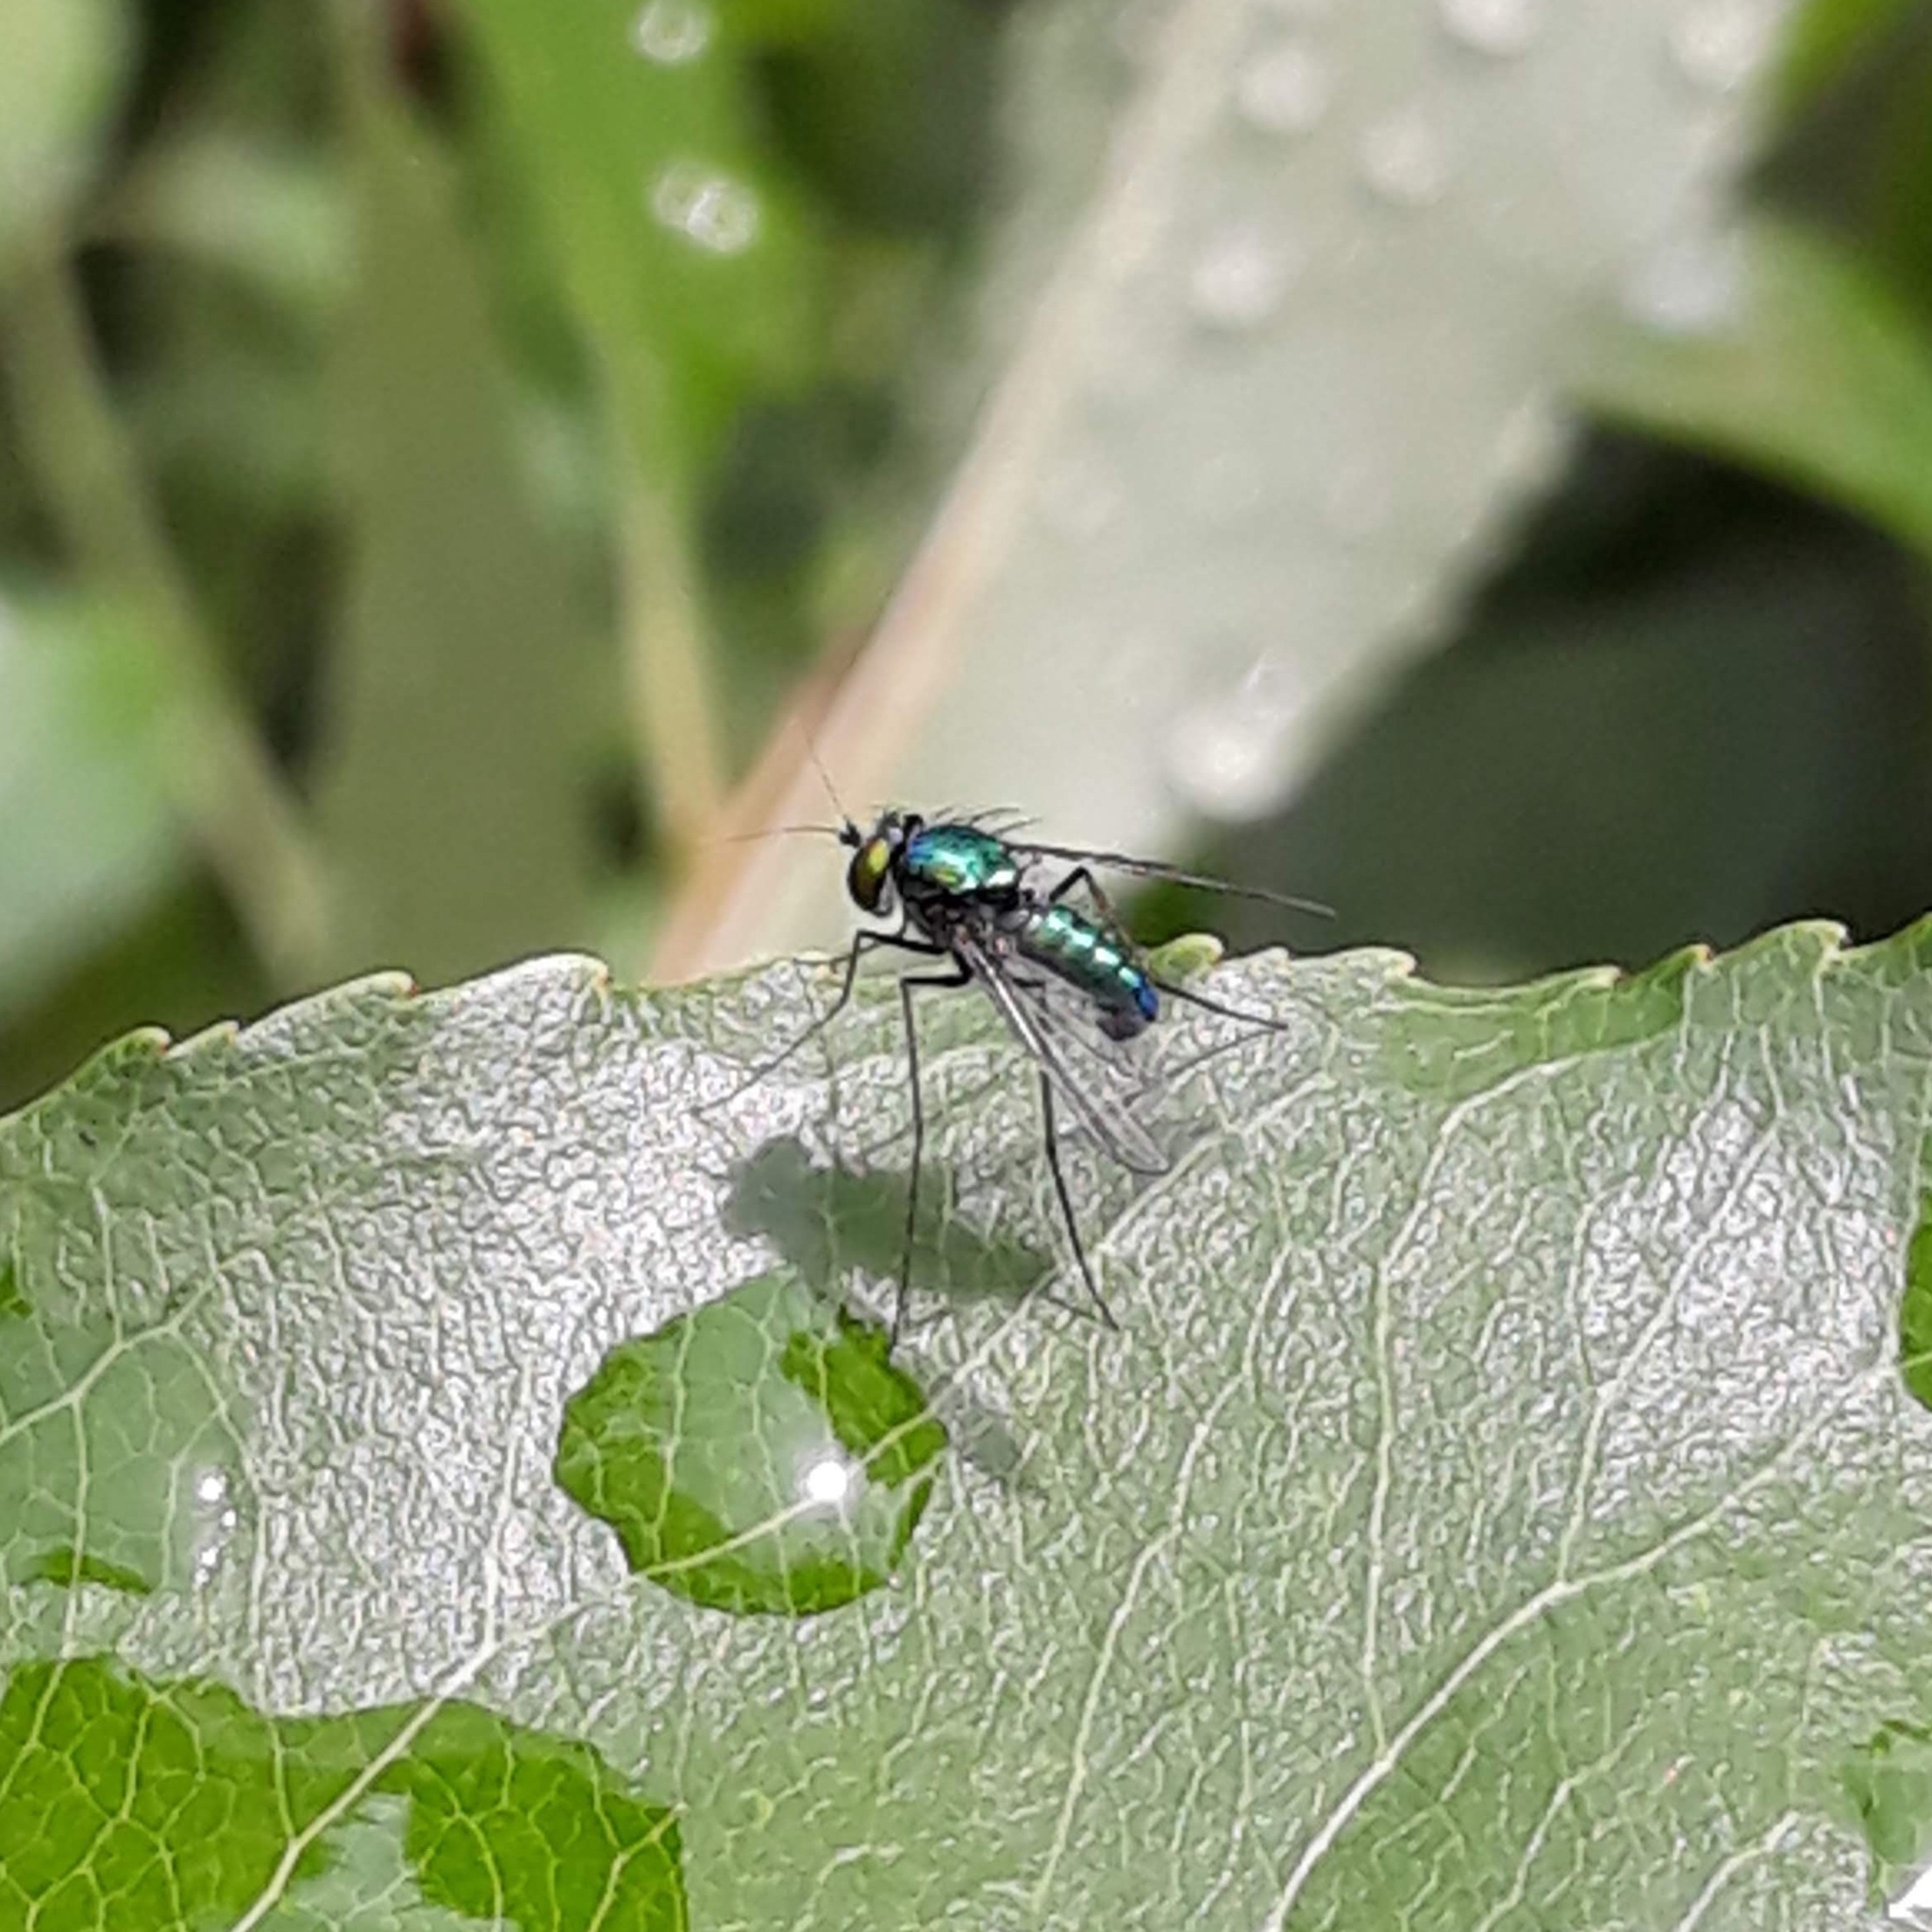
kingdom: Animalia
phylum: Arthropoda
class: Insecta
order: Diptera
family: Dolichopodidae
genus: Condylostylus
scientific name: Condylostylus
